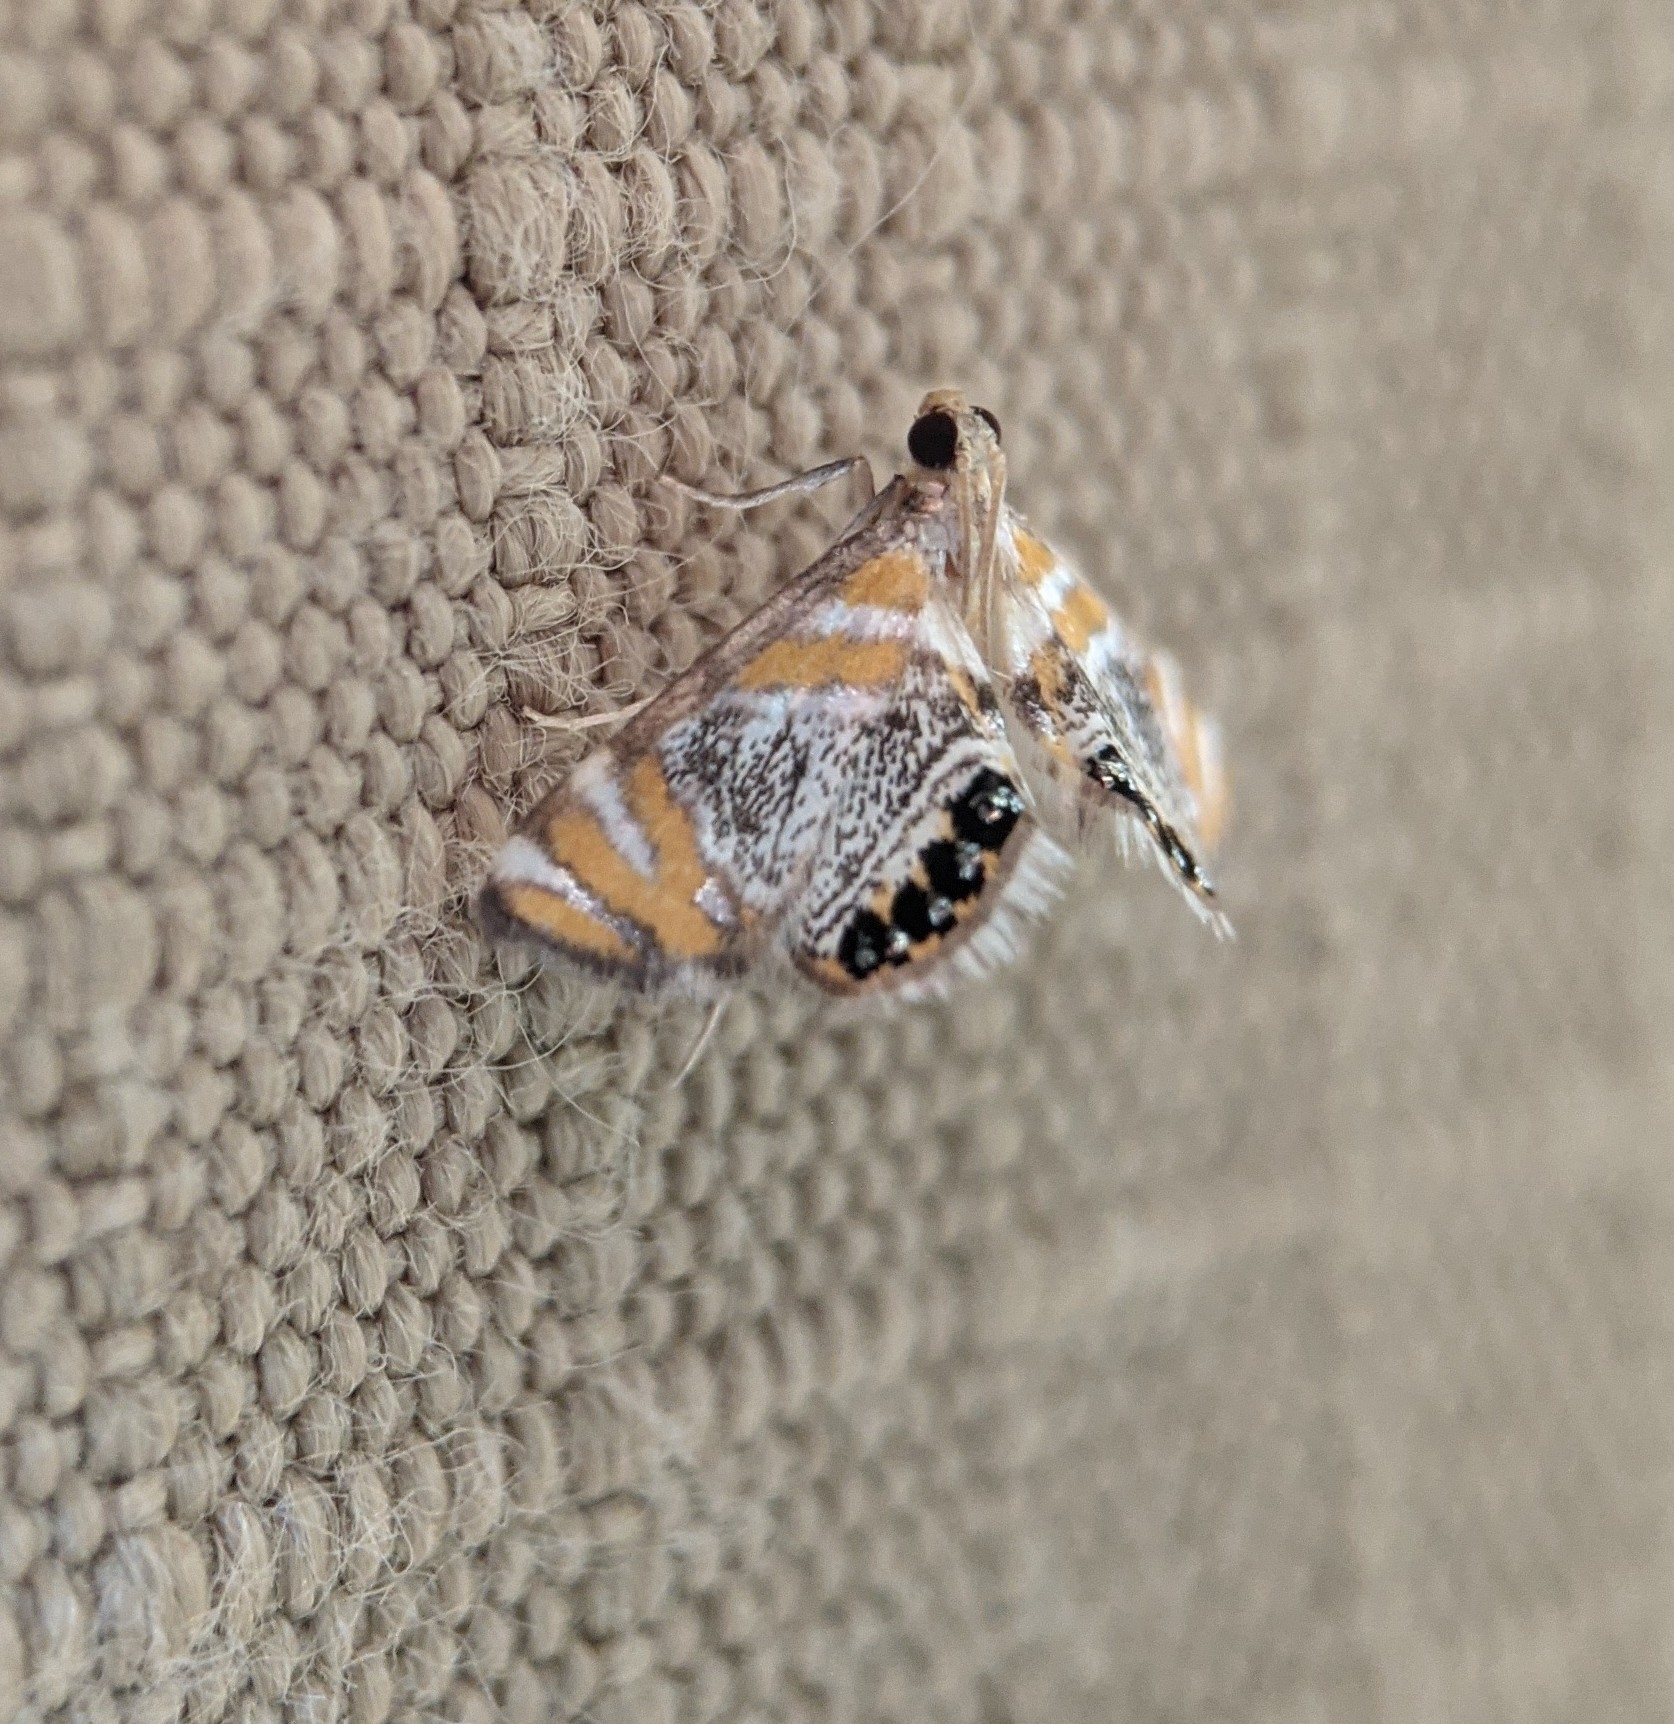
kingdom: Animalia
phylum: Arthropoda
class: Insecta
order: Lepidoptera
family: Crambidae
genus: Nymphicula
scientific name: Nymphicula blandialis
